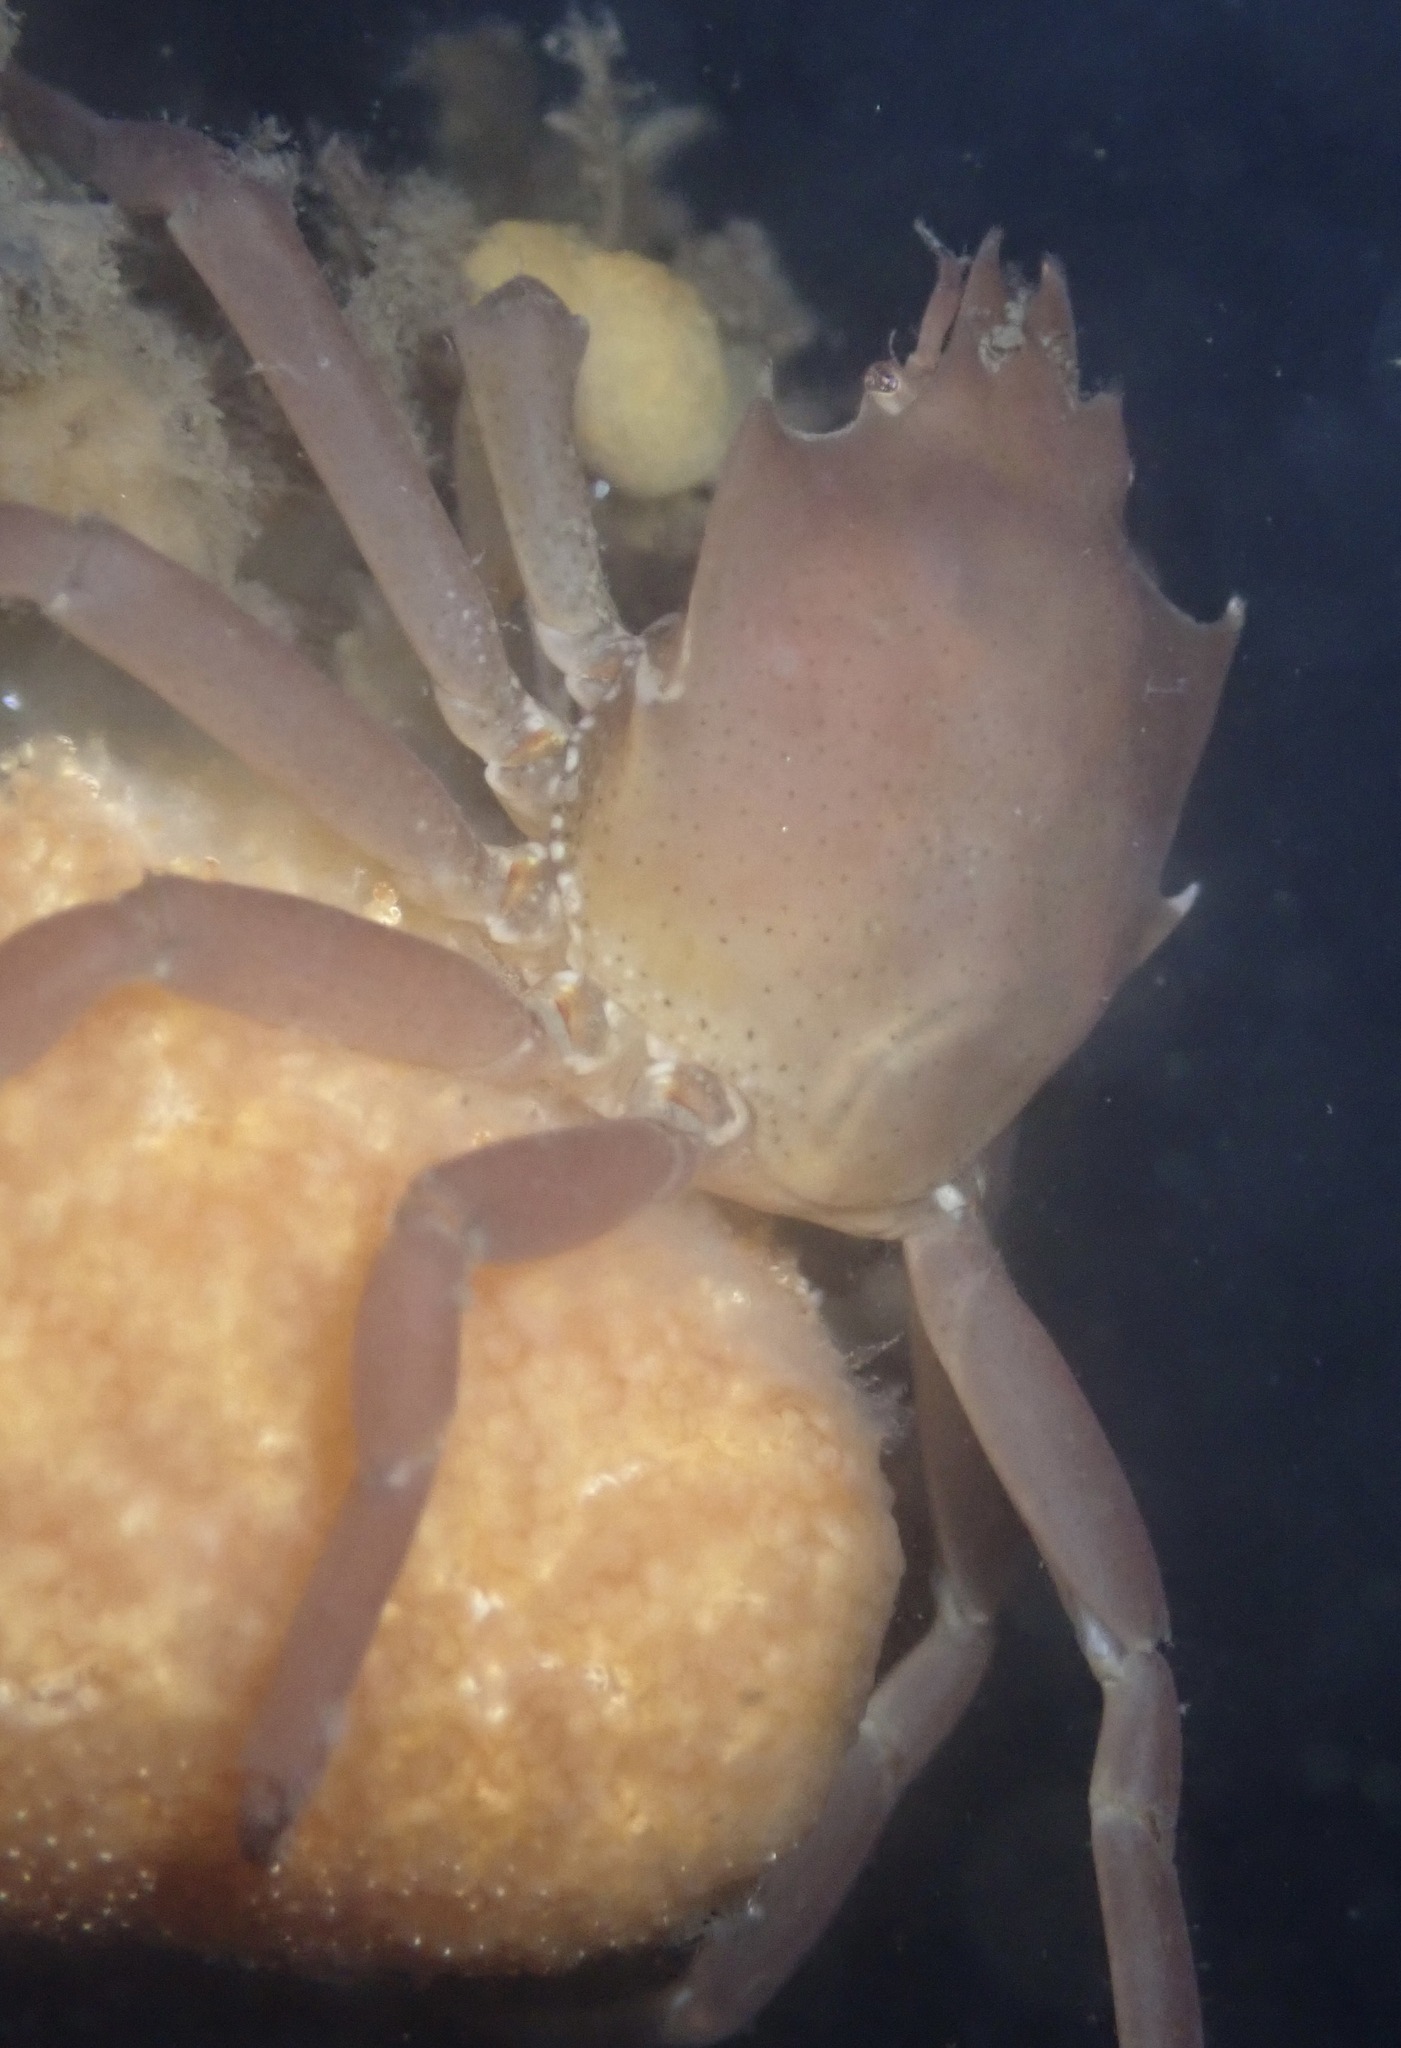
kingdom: Animalia
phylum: Arthropoda
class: Malacostraca
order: Decapoda
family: Epialtidae
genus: Pugettia
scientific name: Pugettia producta
